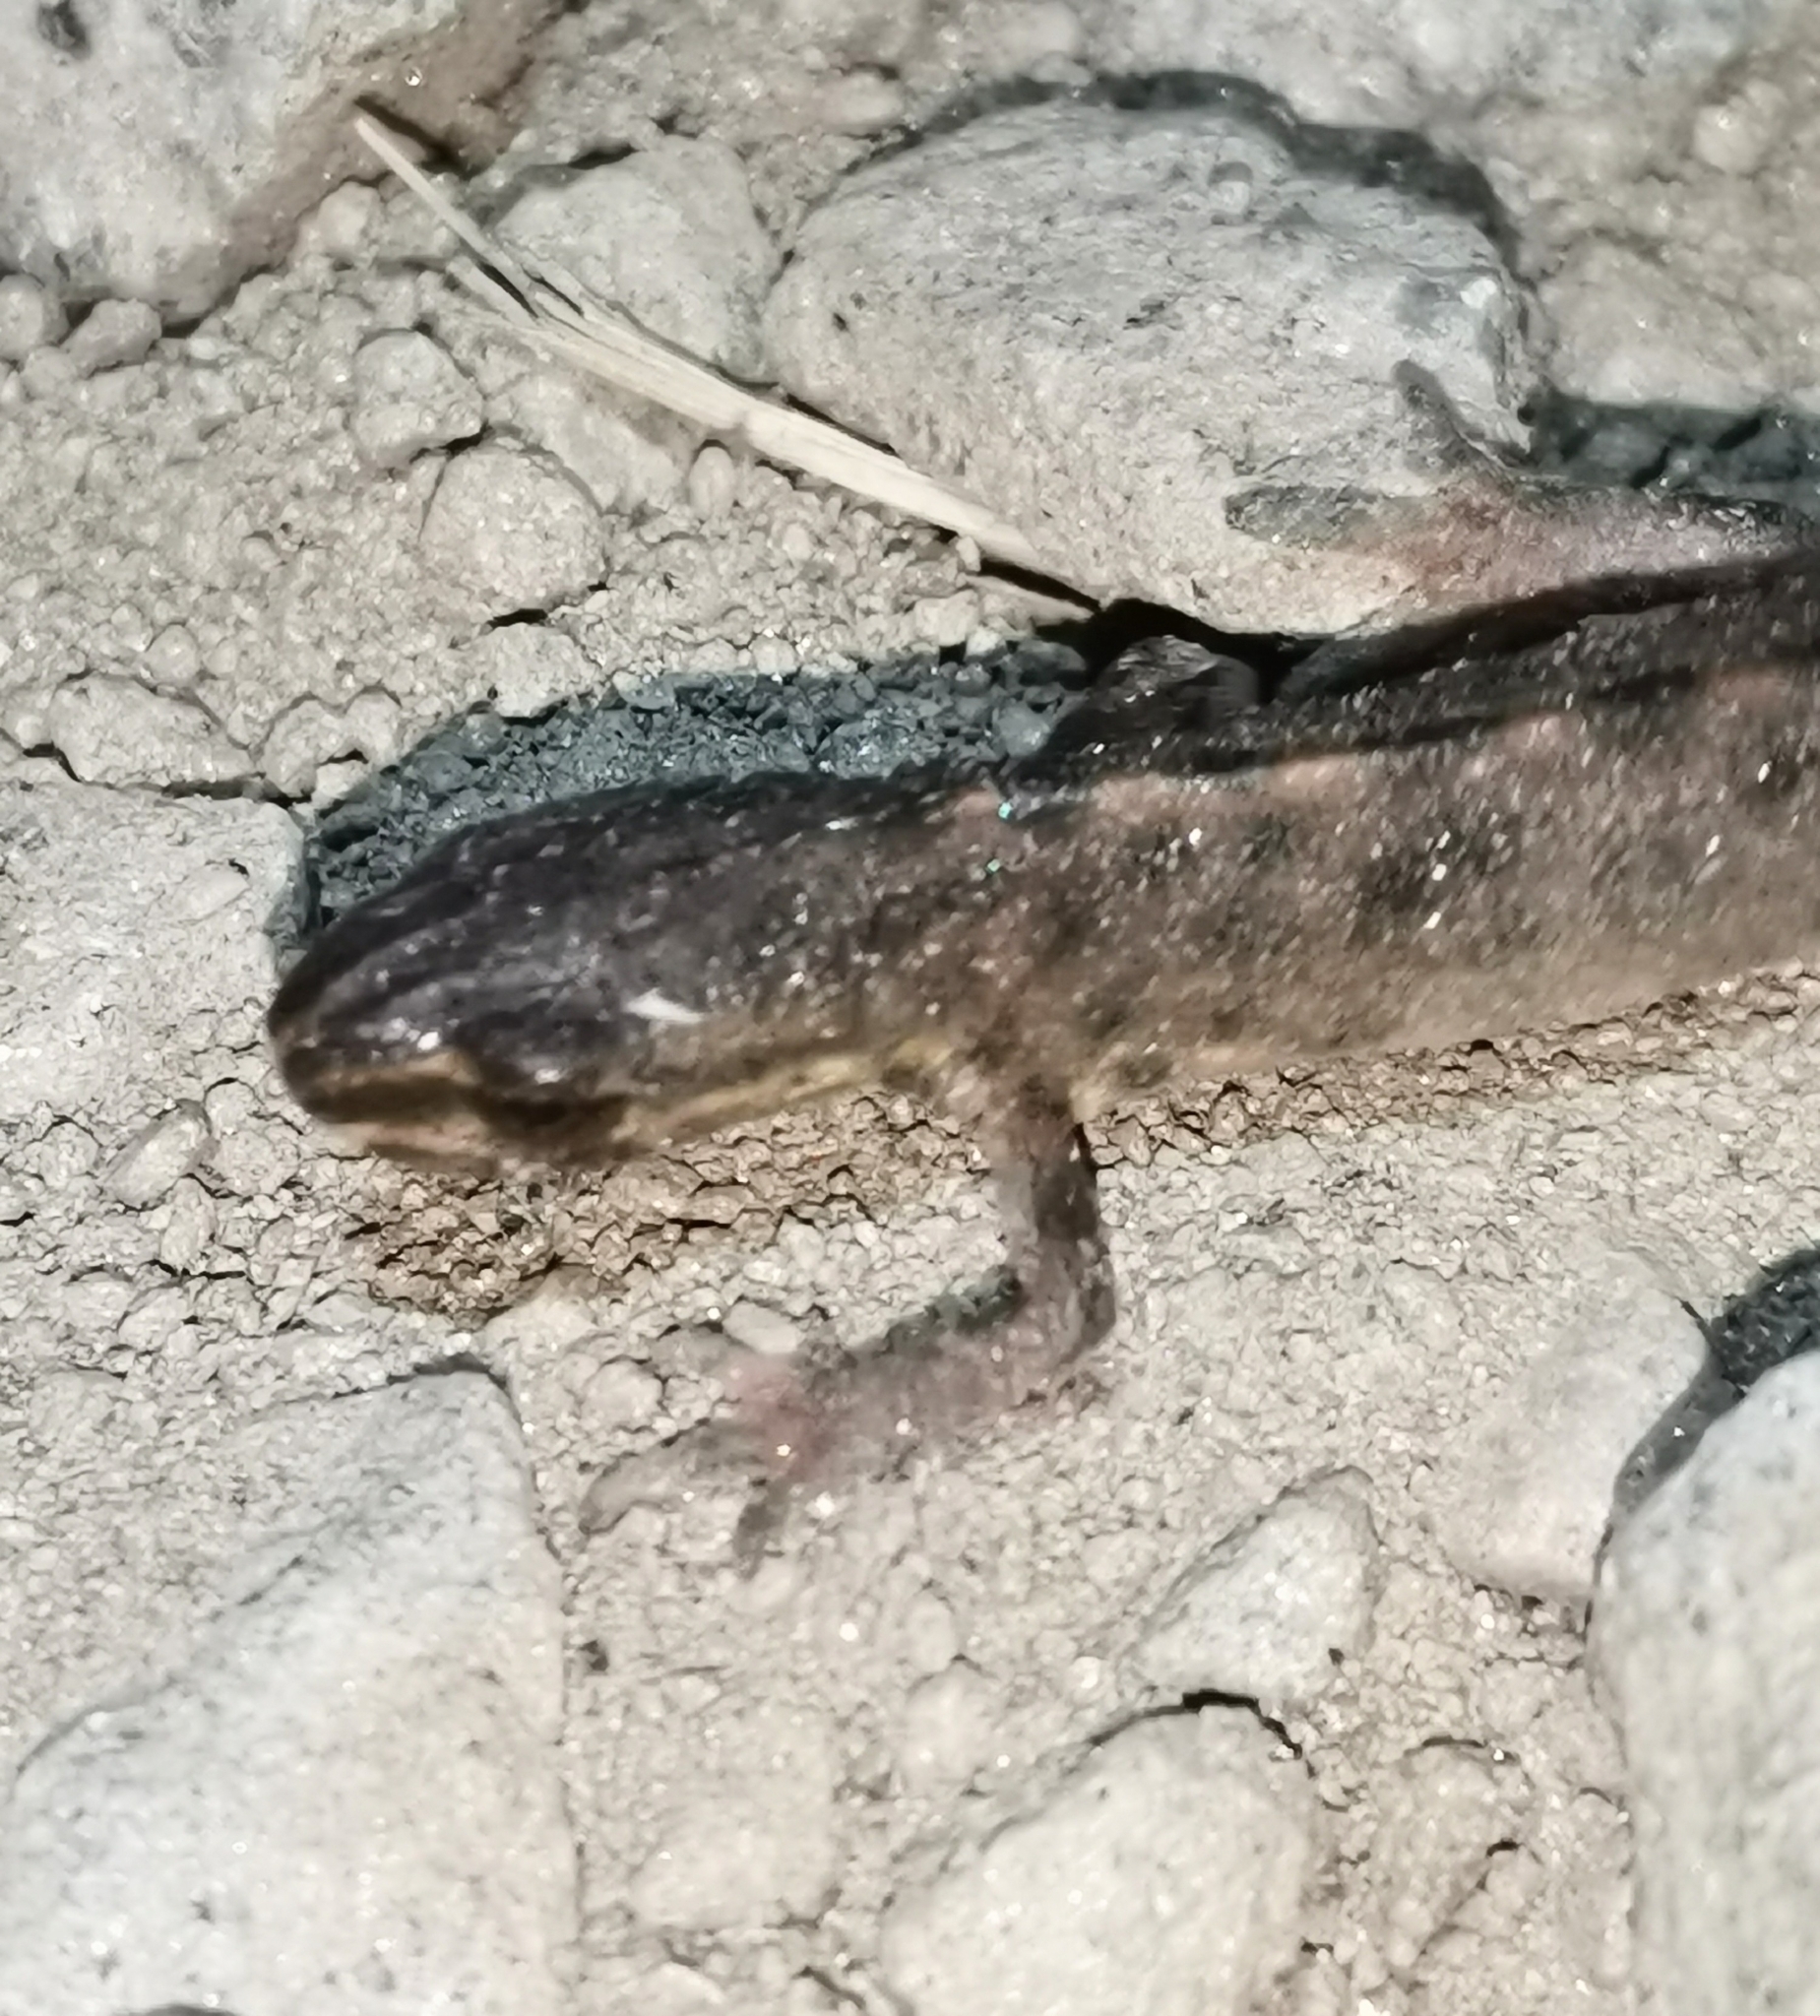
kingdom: Animalia
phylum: Chordata
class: Amphibia
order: Caudata
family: Salamandridae
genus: Lissotriton
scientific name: Lissotriton vulgaris
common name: Smooth newt
